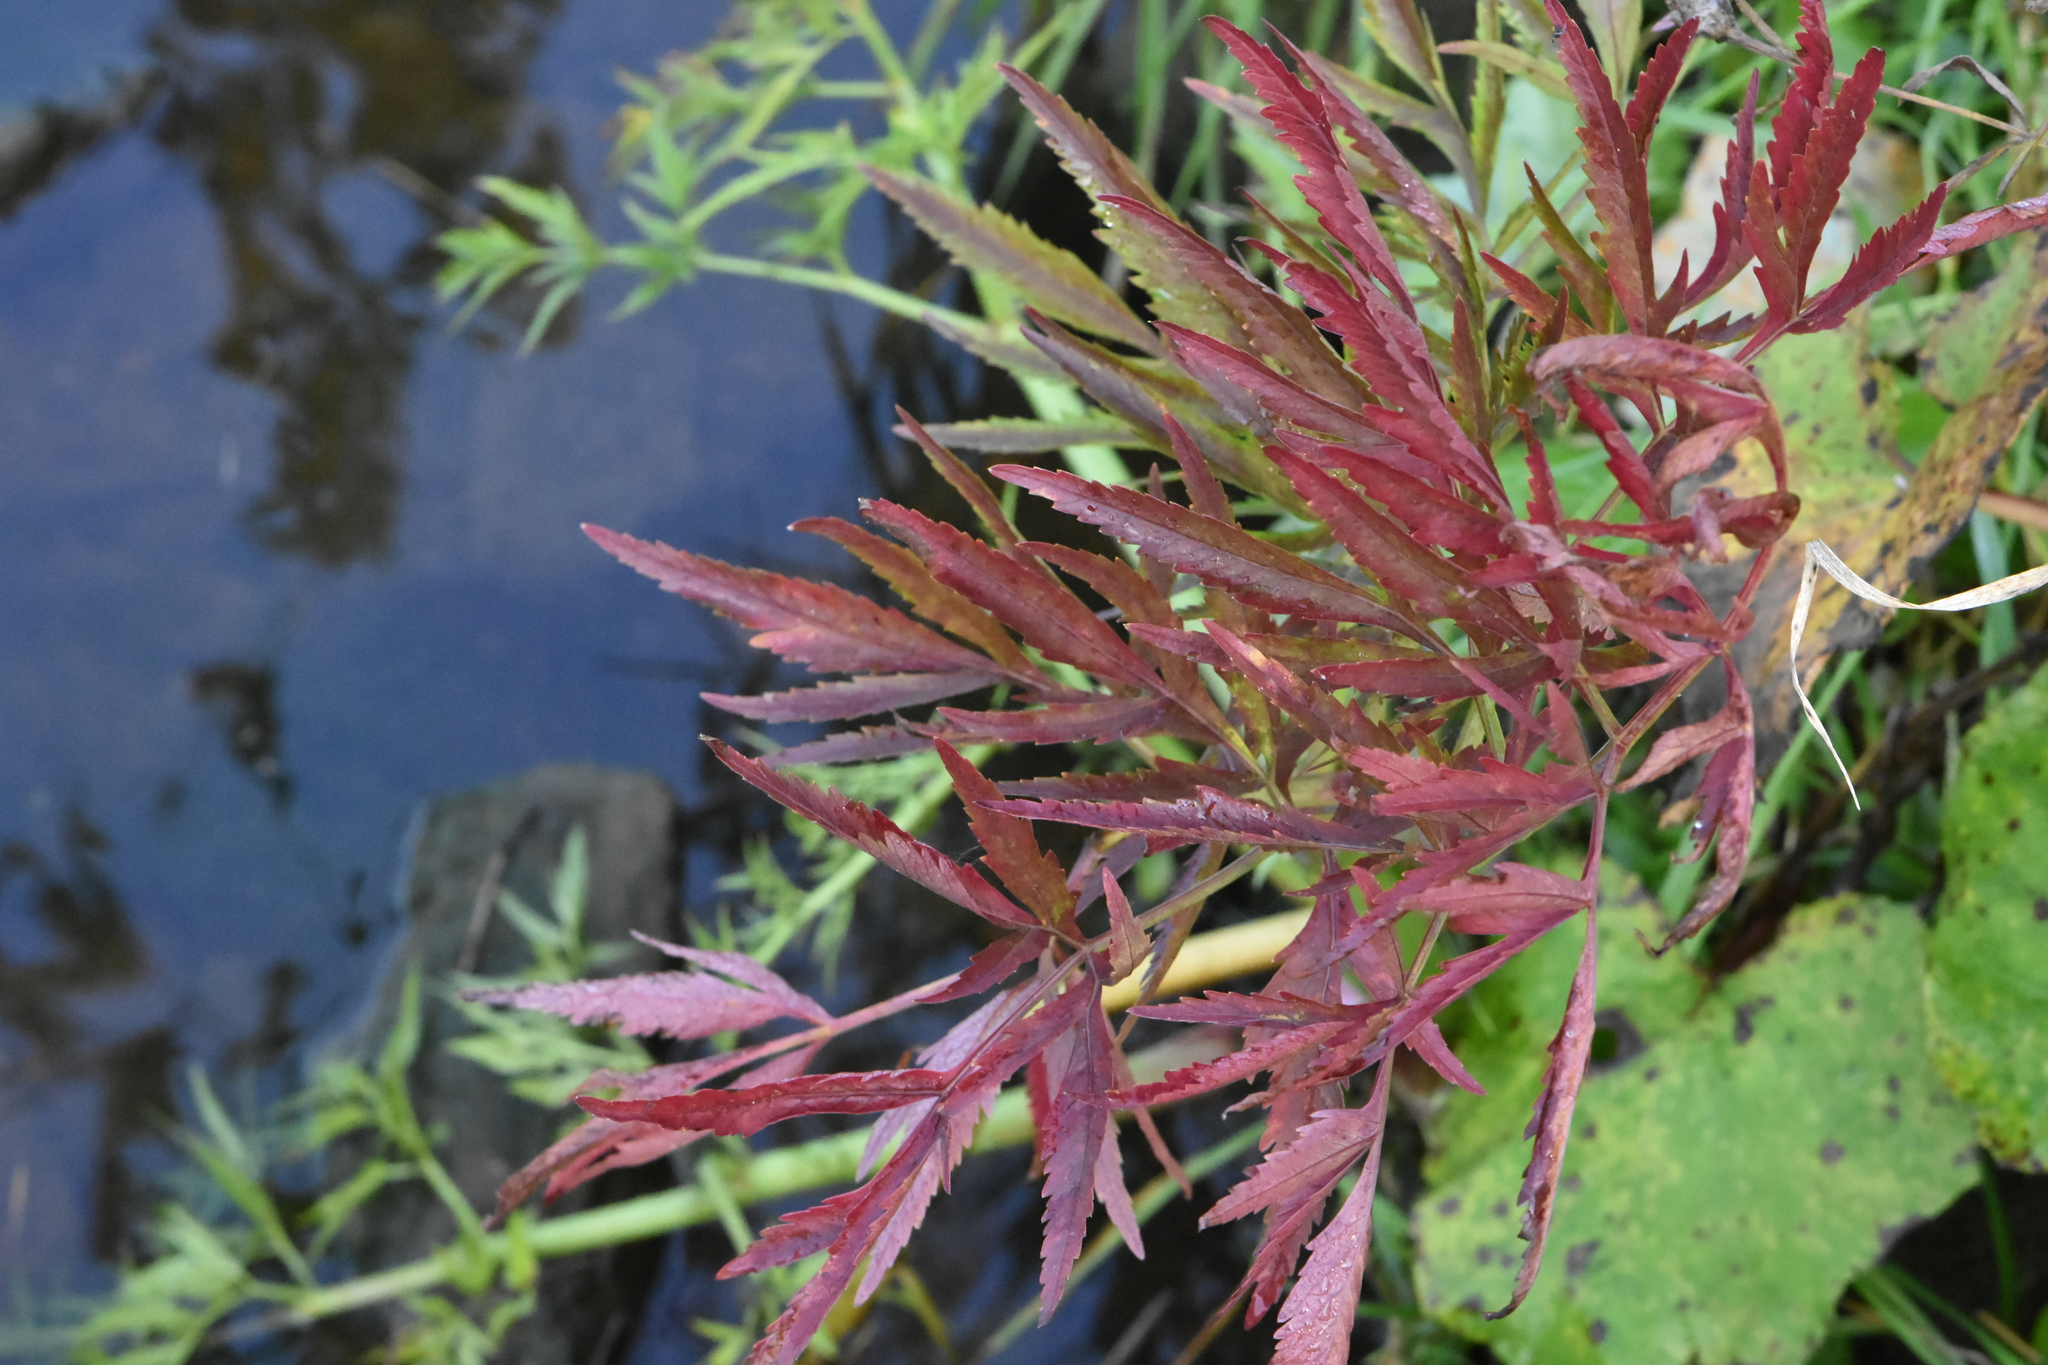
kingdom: Plantae
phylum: Tracheophyta
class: Magnoliopsida
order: Apiales
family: Apiaceae
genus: Cicuta
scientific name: Cicuta virosa
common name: Cowbane
